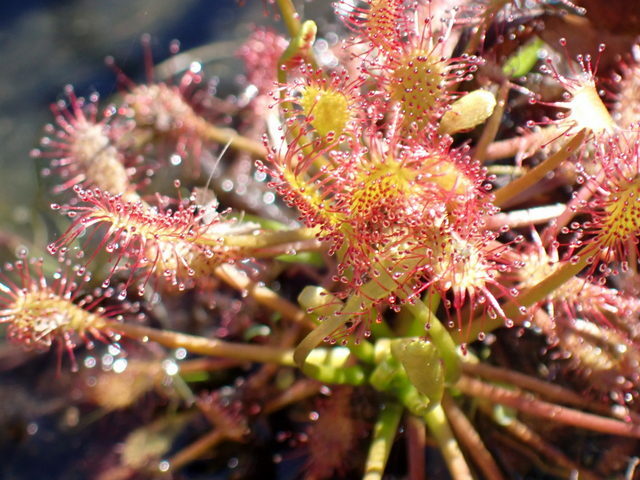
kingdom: Plantae
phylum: Tracheophyta
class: Magnoliopsida
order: Caryophyllales
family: Droseraceae
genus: Drosera
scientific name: Drosera intermedia
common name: Oblong-leaved sundew
